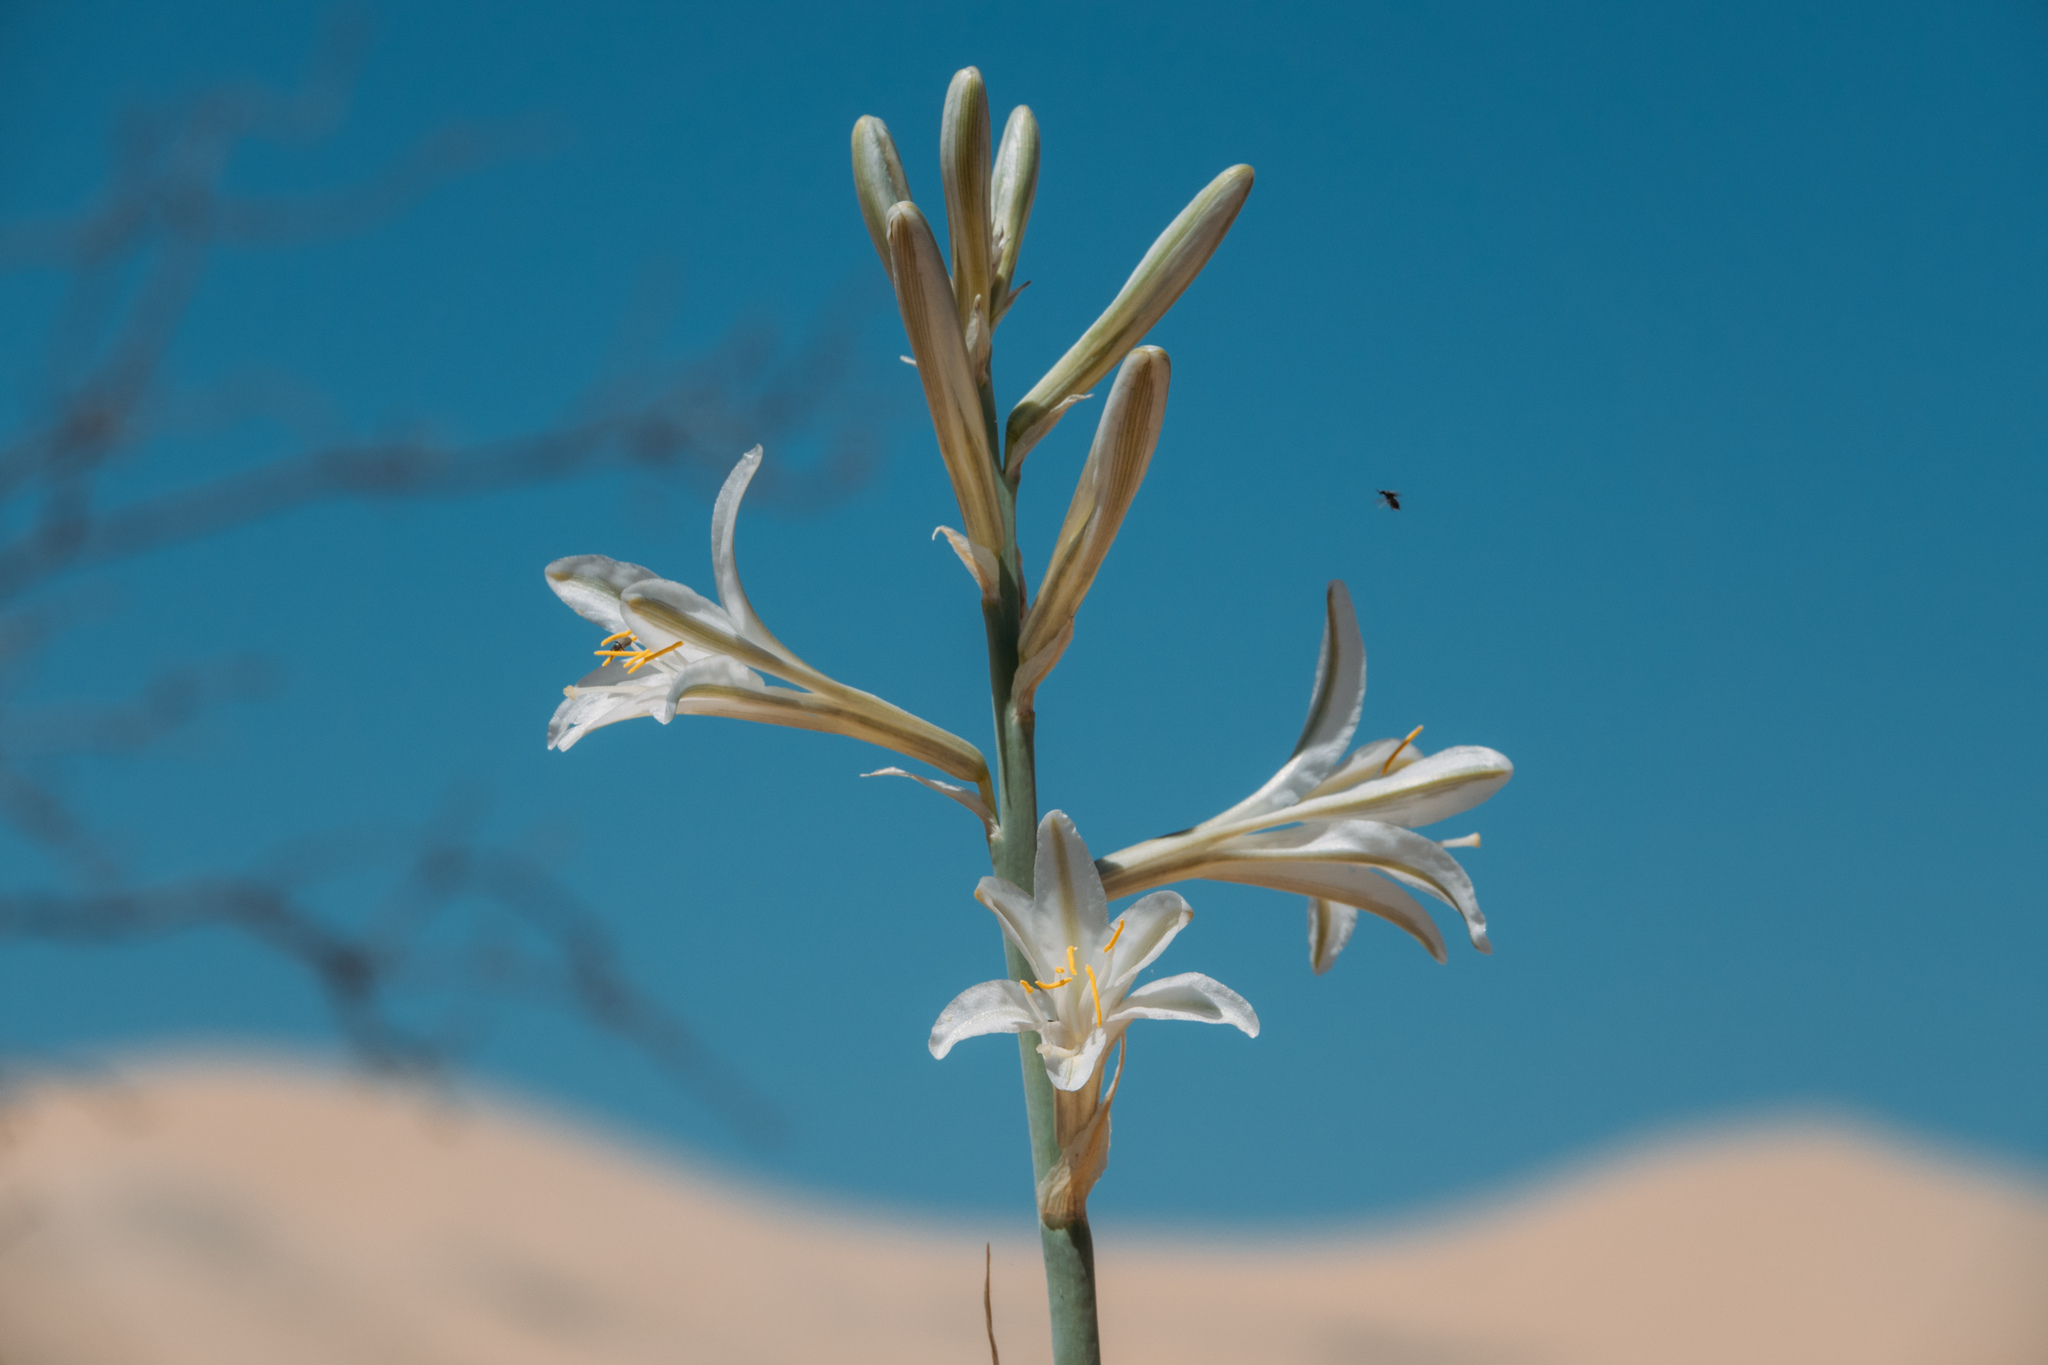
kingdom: Plantae
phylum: Tracheophyta
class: Liliopsida
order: Asparagales
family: Asparagaceae
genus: Hesperocallis
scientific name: Hesperocallis undulata
